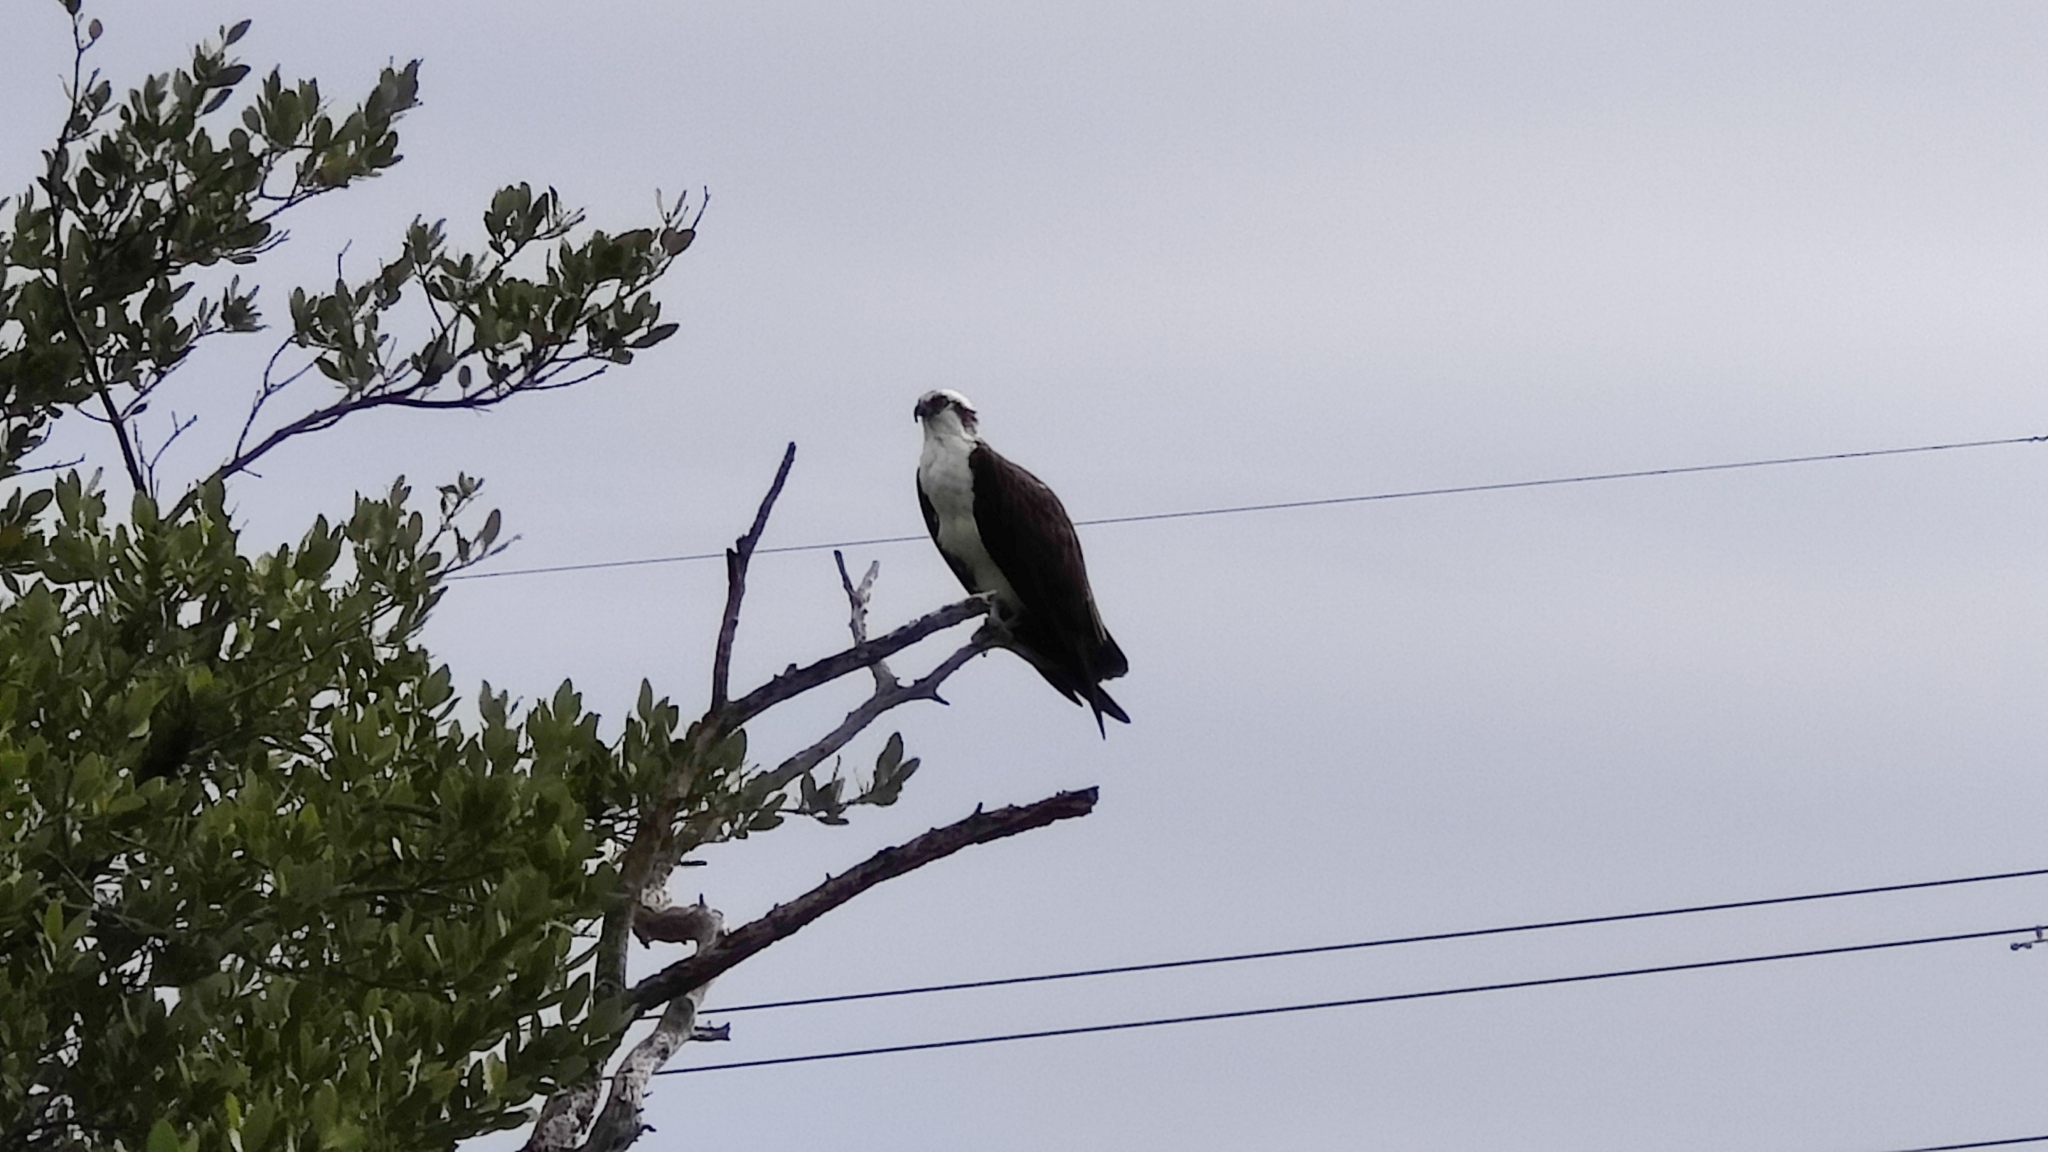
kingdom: Animalia
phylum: Chordata
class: Aves
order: Accipitriformes
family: Pandionidae
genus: Pandion
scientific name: Pandion haliaetus
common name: Osprey
